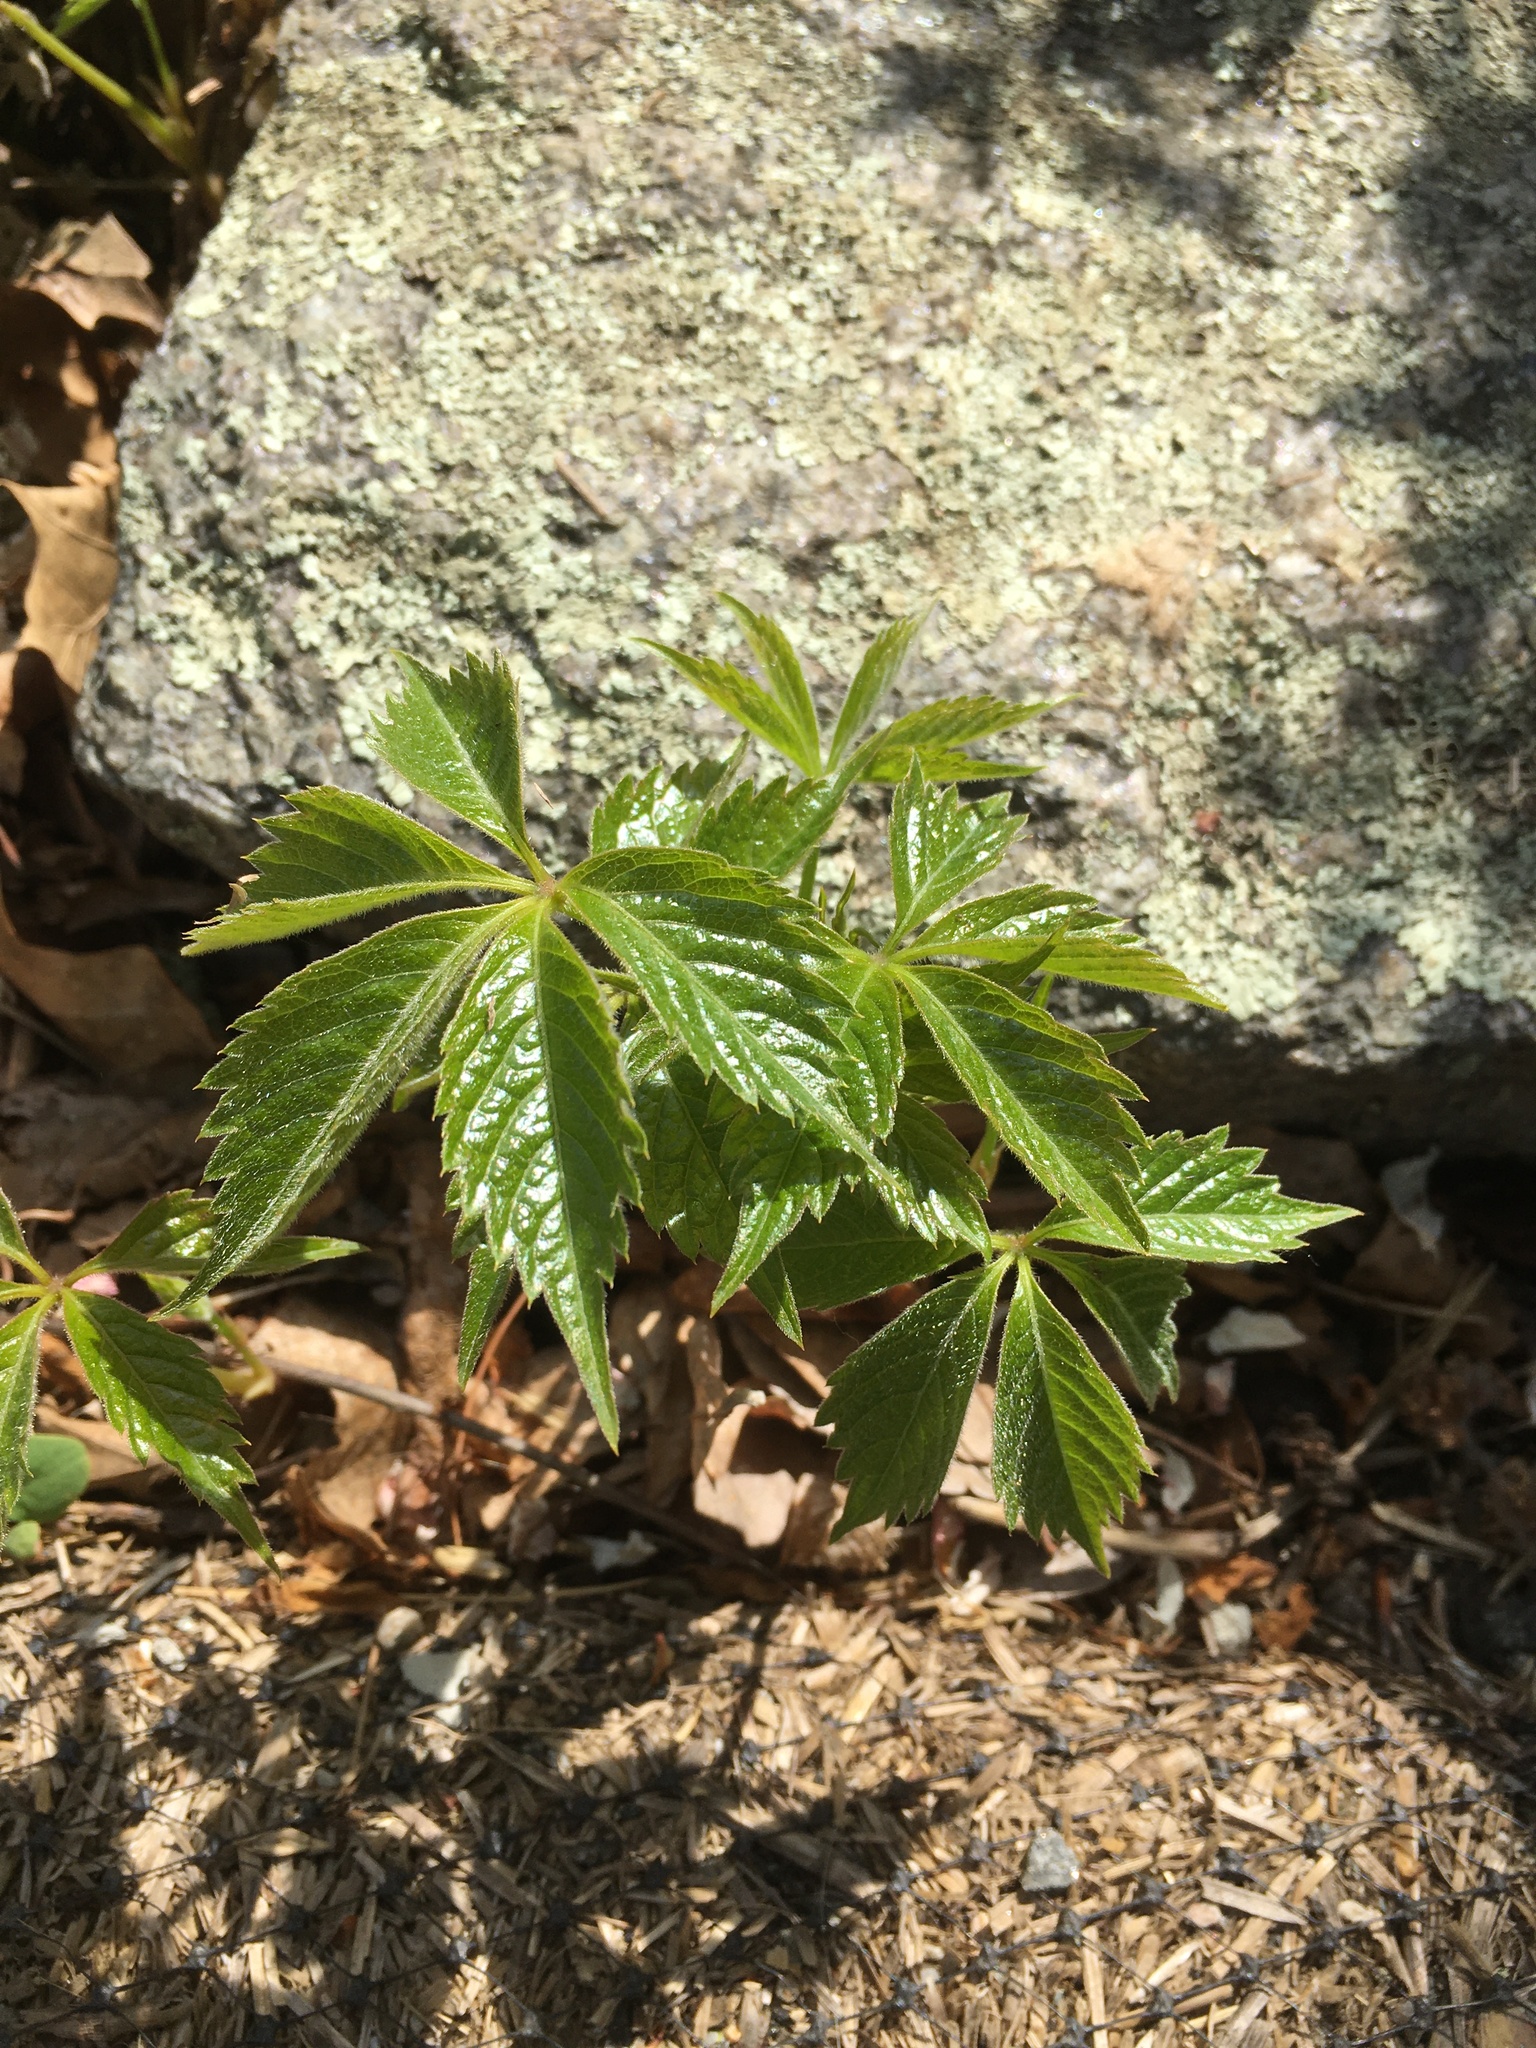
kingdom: Plantae
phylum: Tracheophyta
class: Magnoliopsida
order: Vitales
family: Vitaceae
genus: Parthenocissus
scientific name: Parthenocissus quinquefolia
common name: Virginia-creeper
